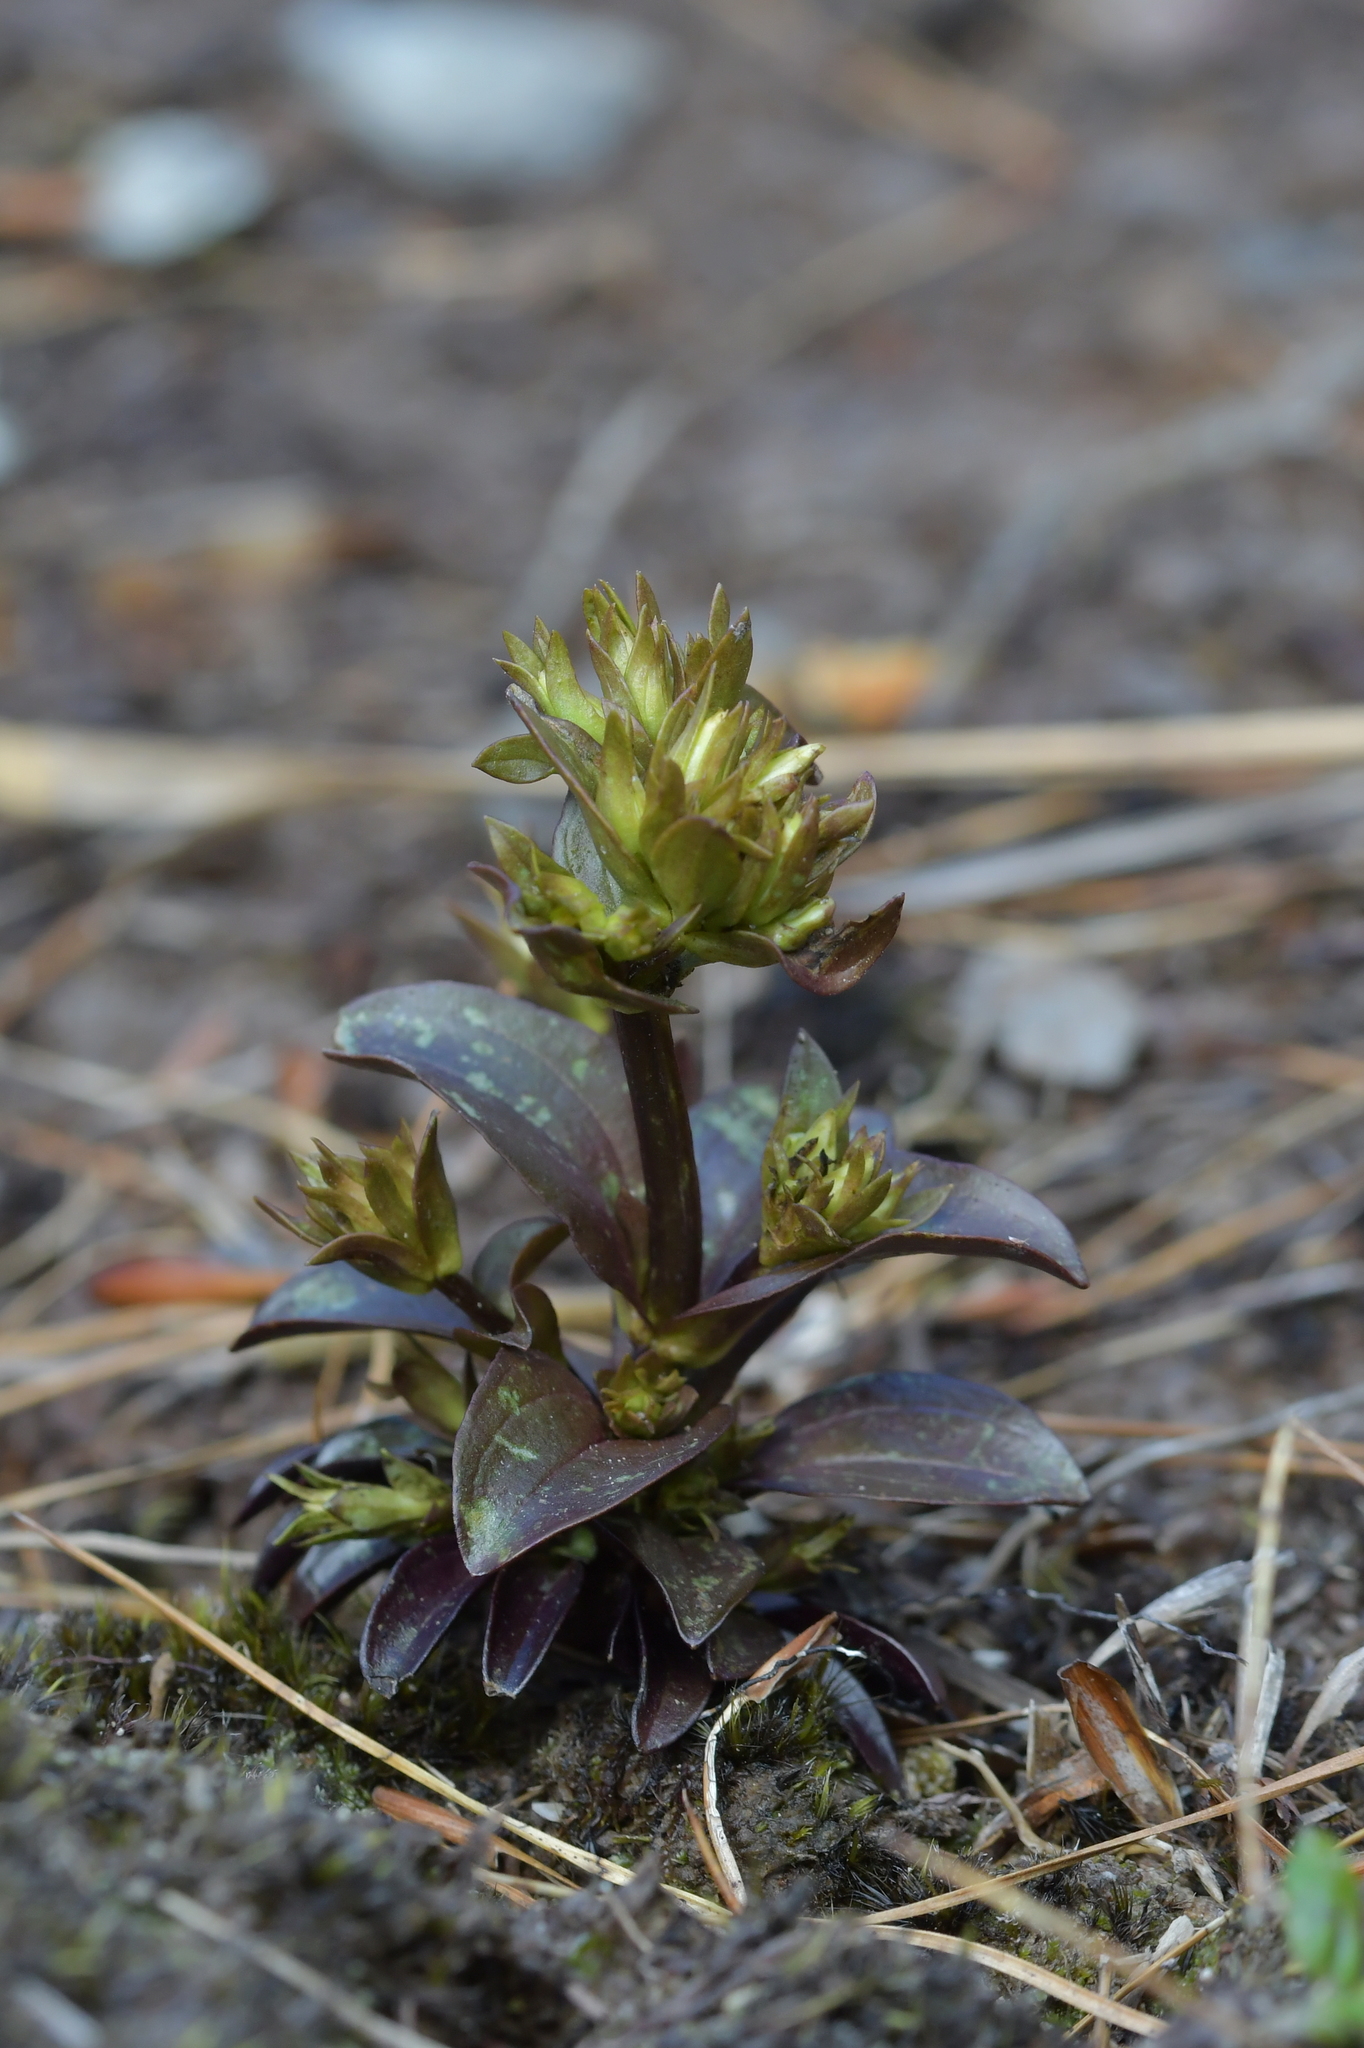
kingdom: Plantae
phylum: Tracheophyta
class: Magnoliopsida
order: Gentianales
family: Gentianaceae
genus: Gentianella
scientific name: Gentianella montana
